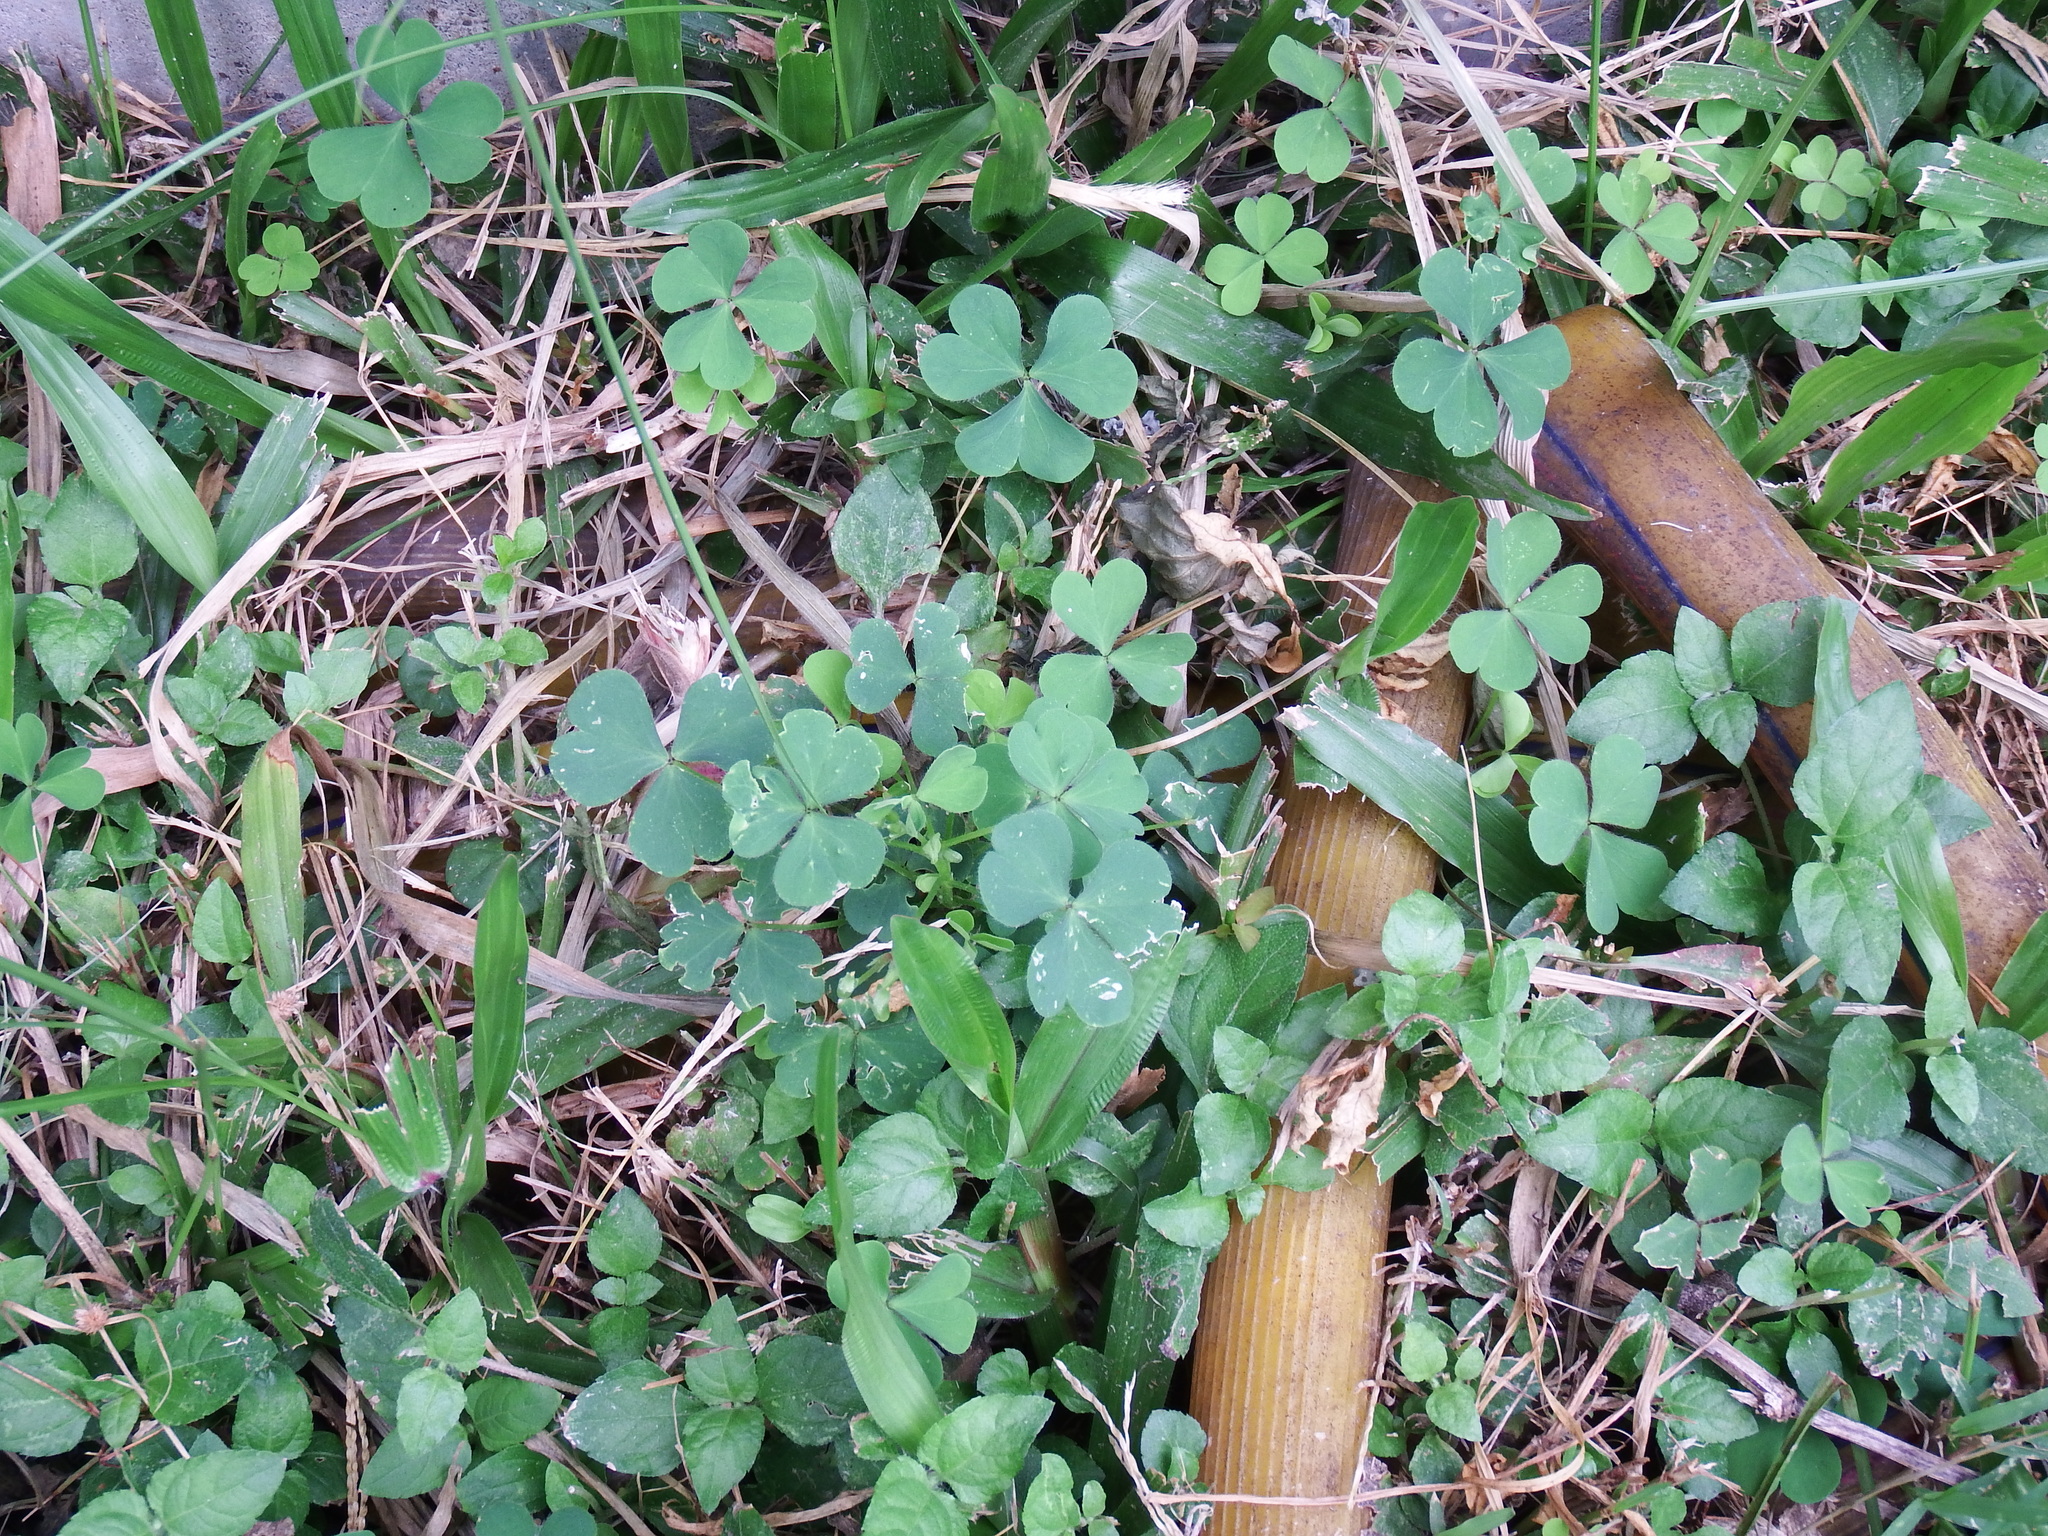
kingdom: Plantae
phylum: Tracheophyta
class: Magnoliopsida
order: Oxalidales
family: Oxalidaceae
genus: Oxalis
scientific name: Oxalis corniculata
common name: Procumbent yellow-sorrel
